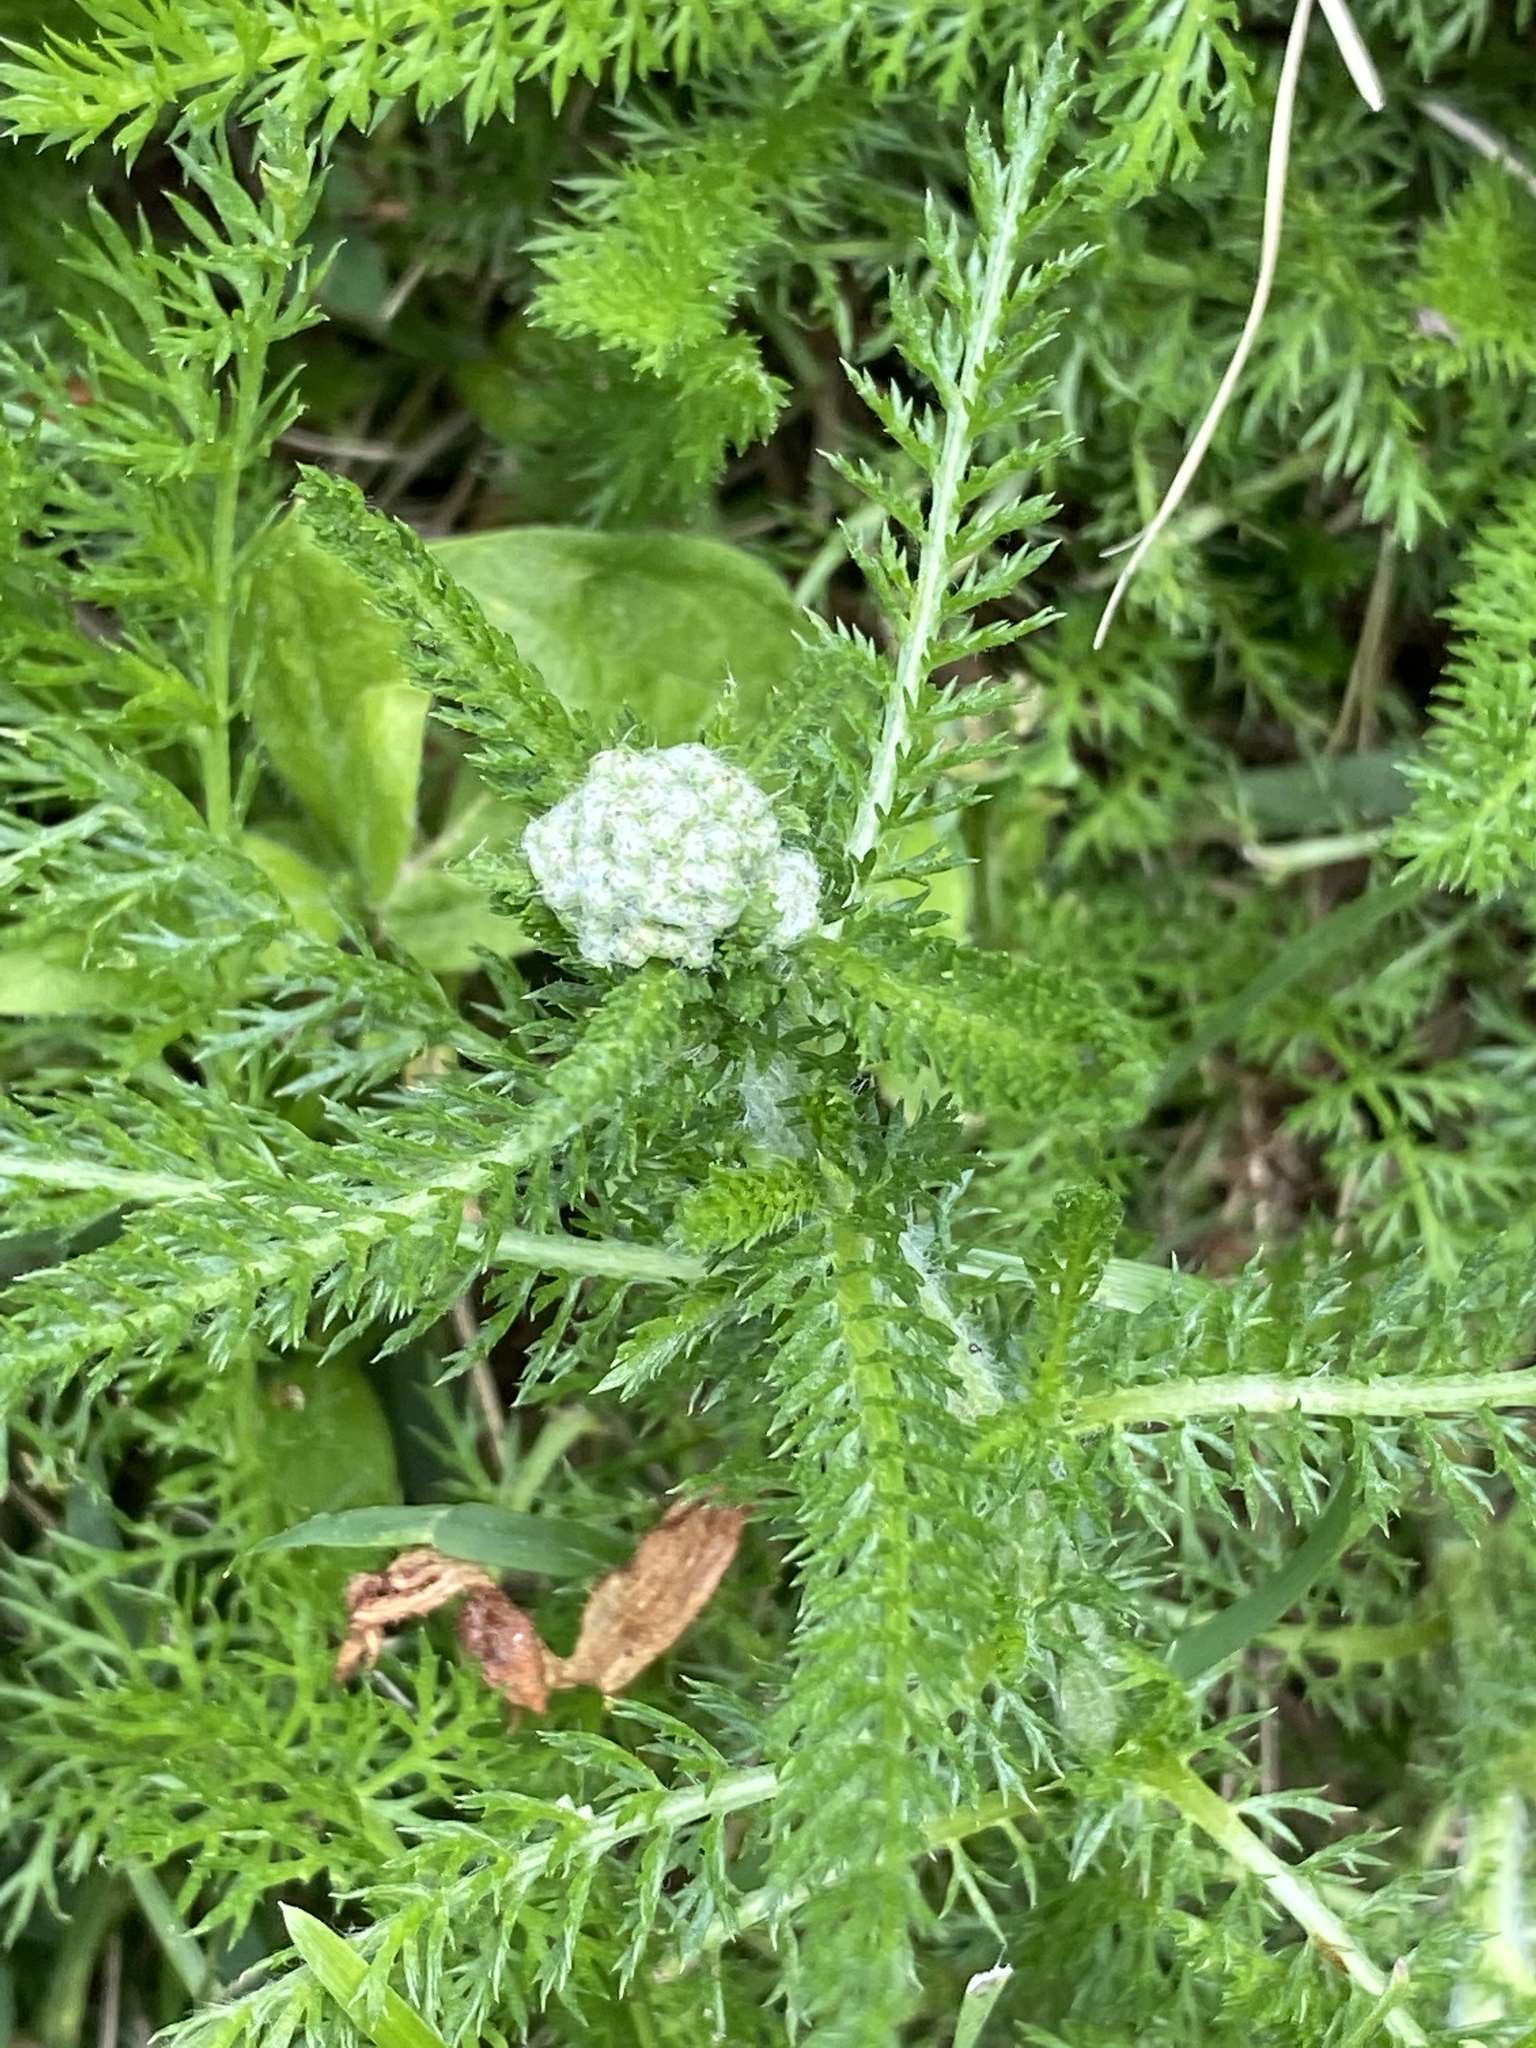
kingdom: Plantae
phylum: Tracheophyta
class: Magnoliopsida
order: Asterales
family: Asteraceae
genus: Achillea
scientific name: Achillea millefolium
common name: Yarrow
